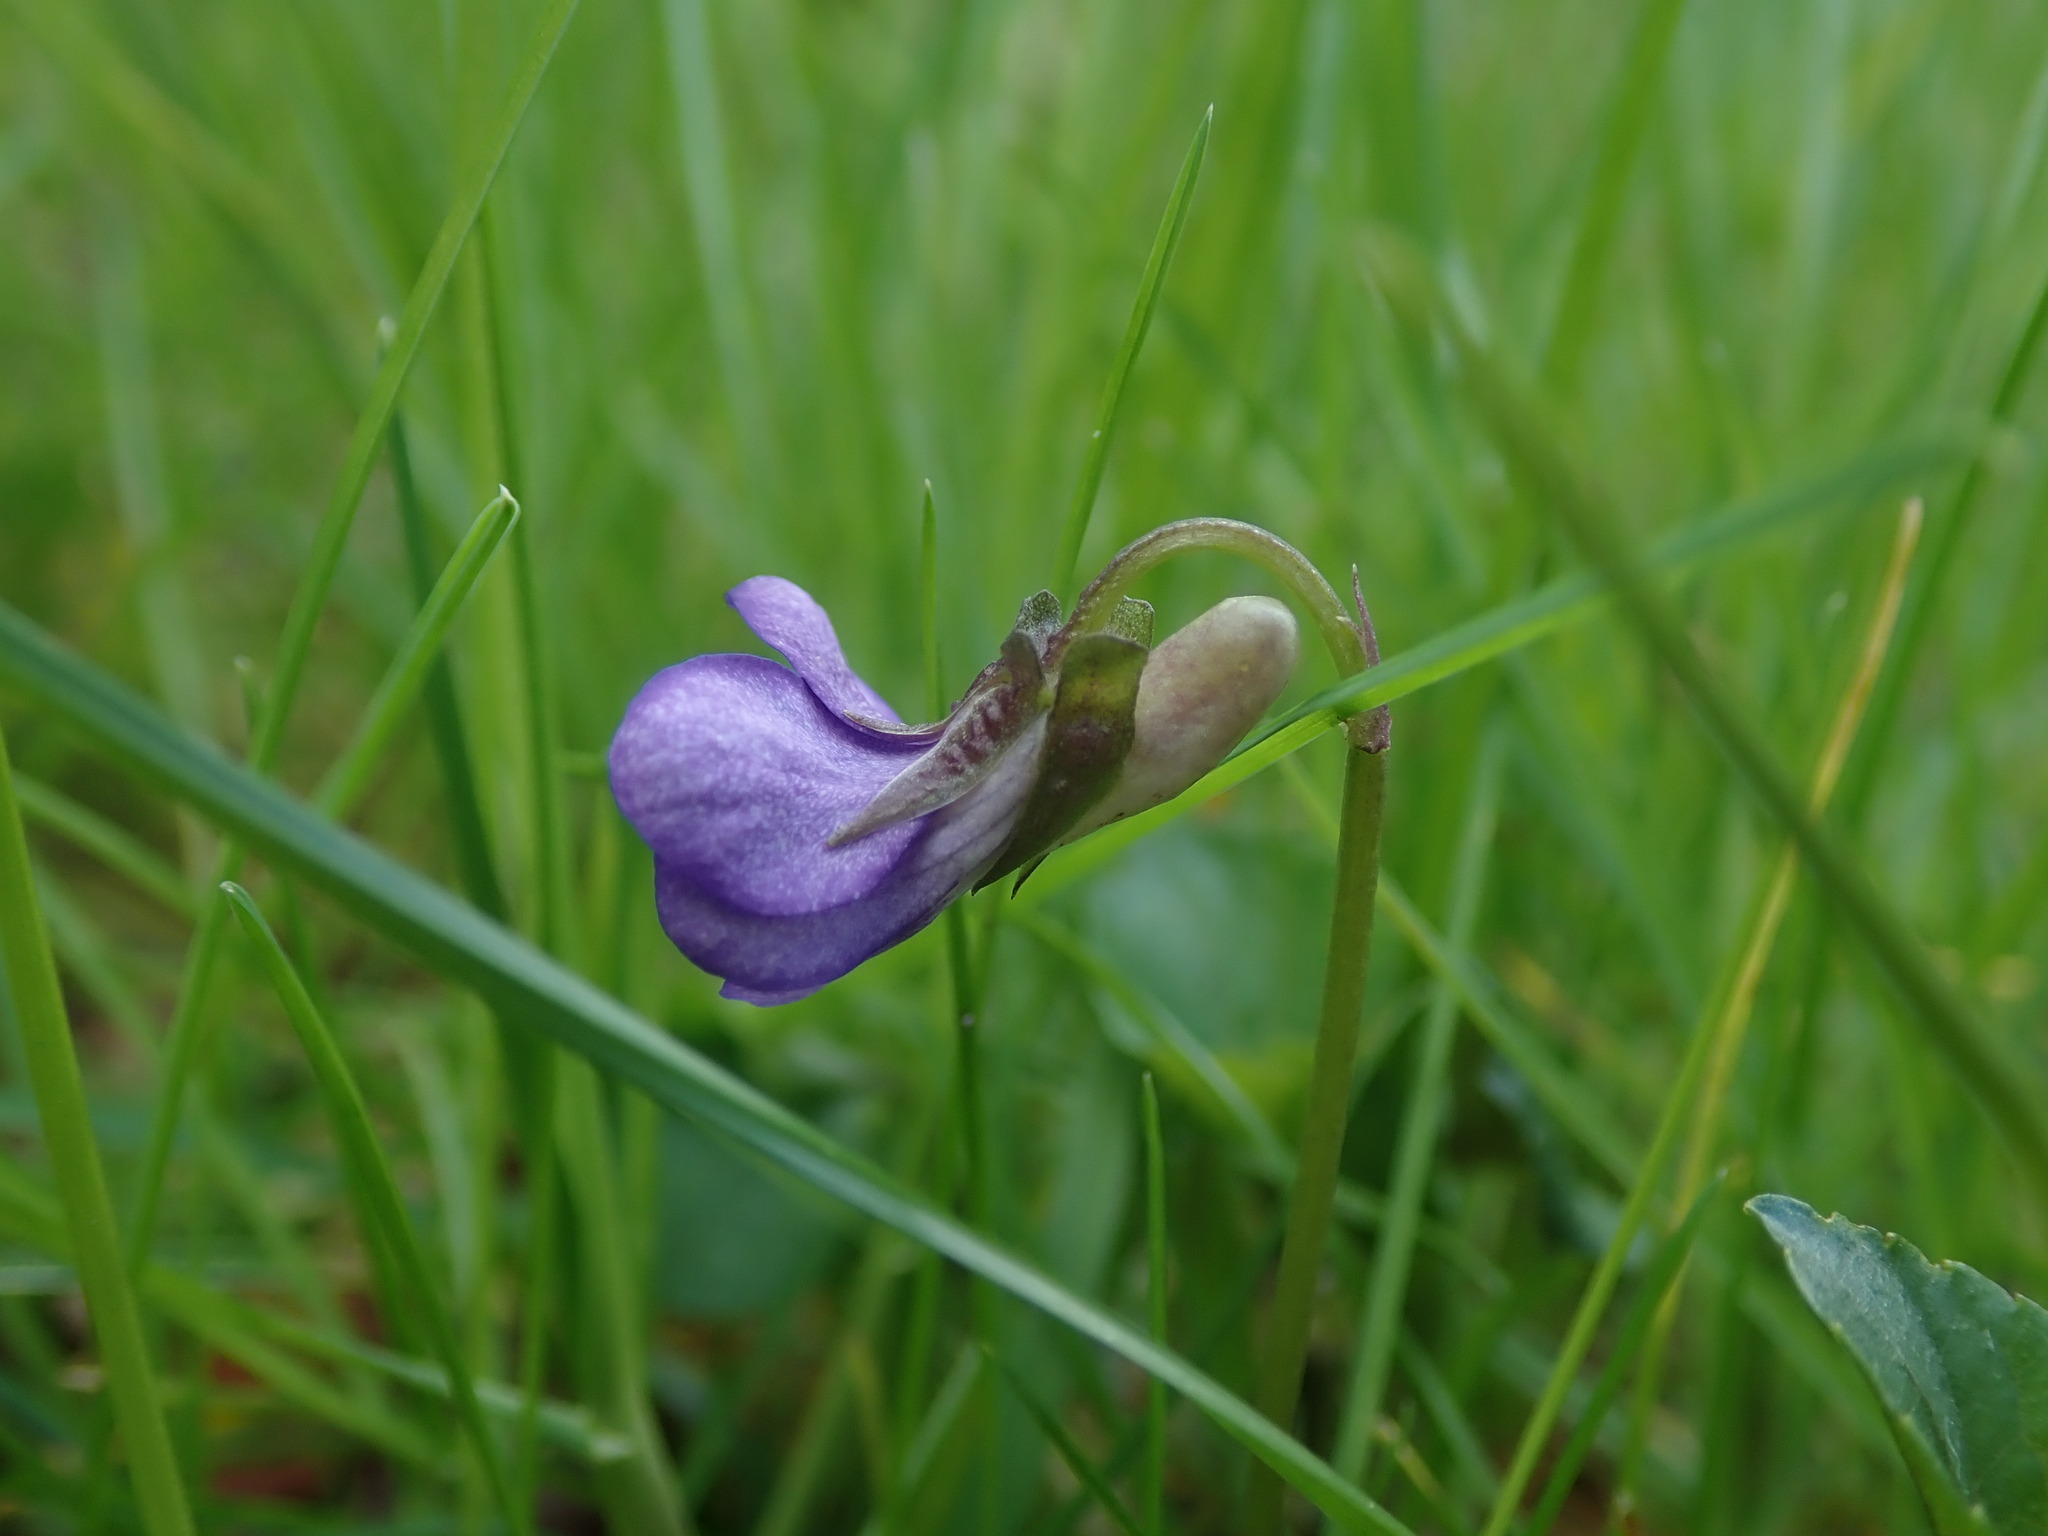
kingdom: Plantae
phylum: Tracheophyta
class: Magnoliopsida
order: Malpighiales
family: Violaceae
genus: Viola
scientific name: Viola riviniana
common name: Common dog-violet
